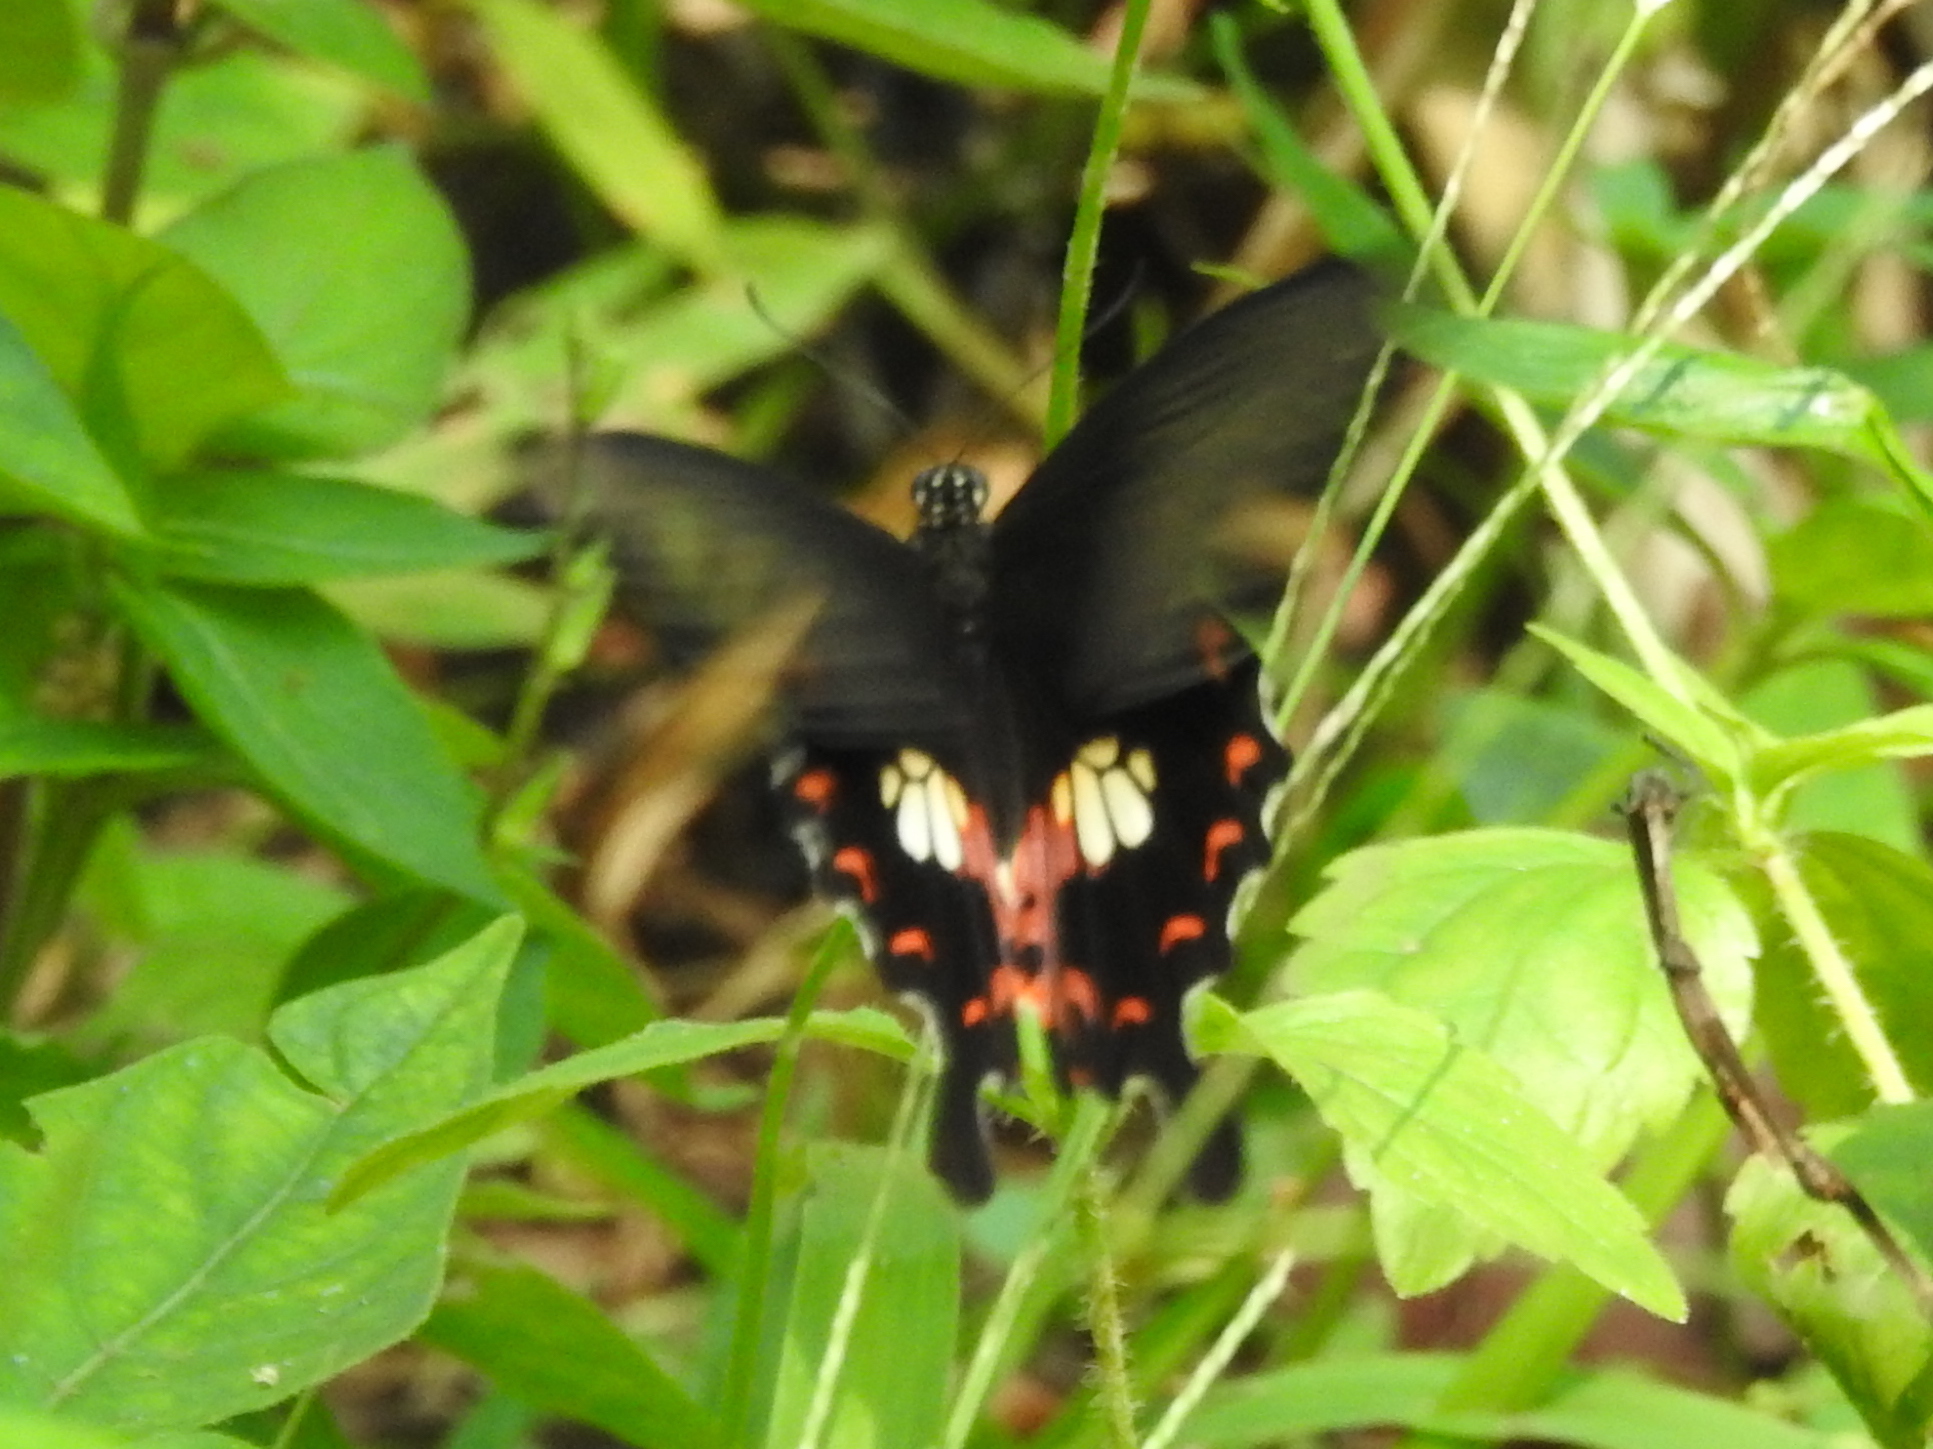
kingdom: Animalia
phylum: Arthropoda
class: Insecta
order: Lepidoptera
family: Papilionidae
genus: Papilio
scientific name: Papilio polytes
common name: Common mormon
